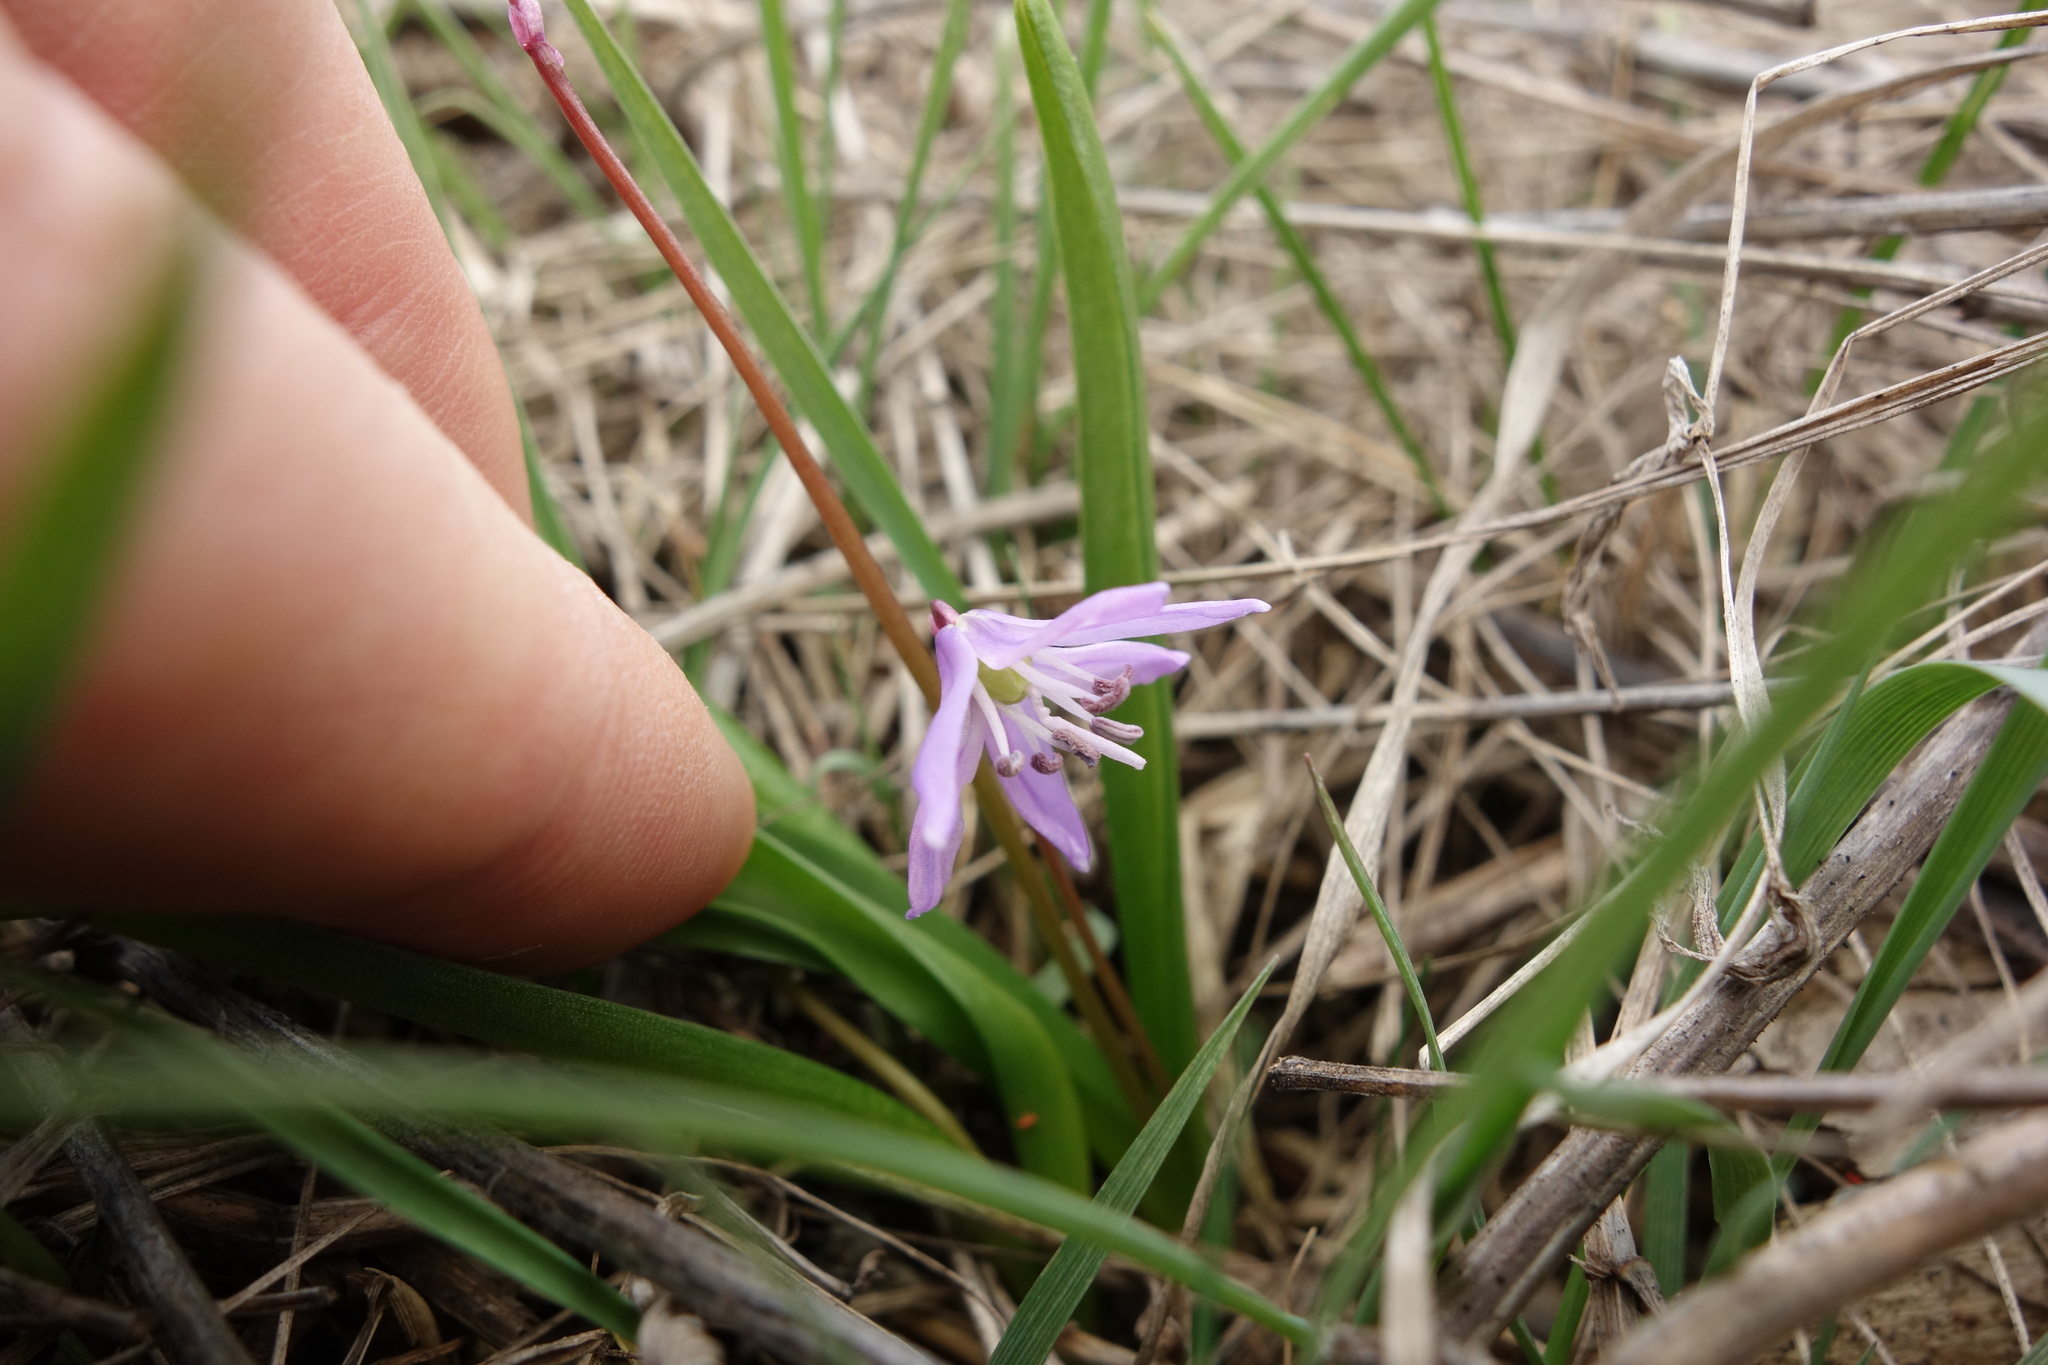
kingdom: Plantae
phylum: Tracheophyta
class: Liliopsida
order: Asparagales
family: Asparagaceae
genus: Scilla
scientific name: Scilla siberica
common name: Siberian squill
